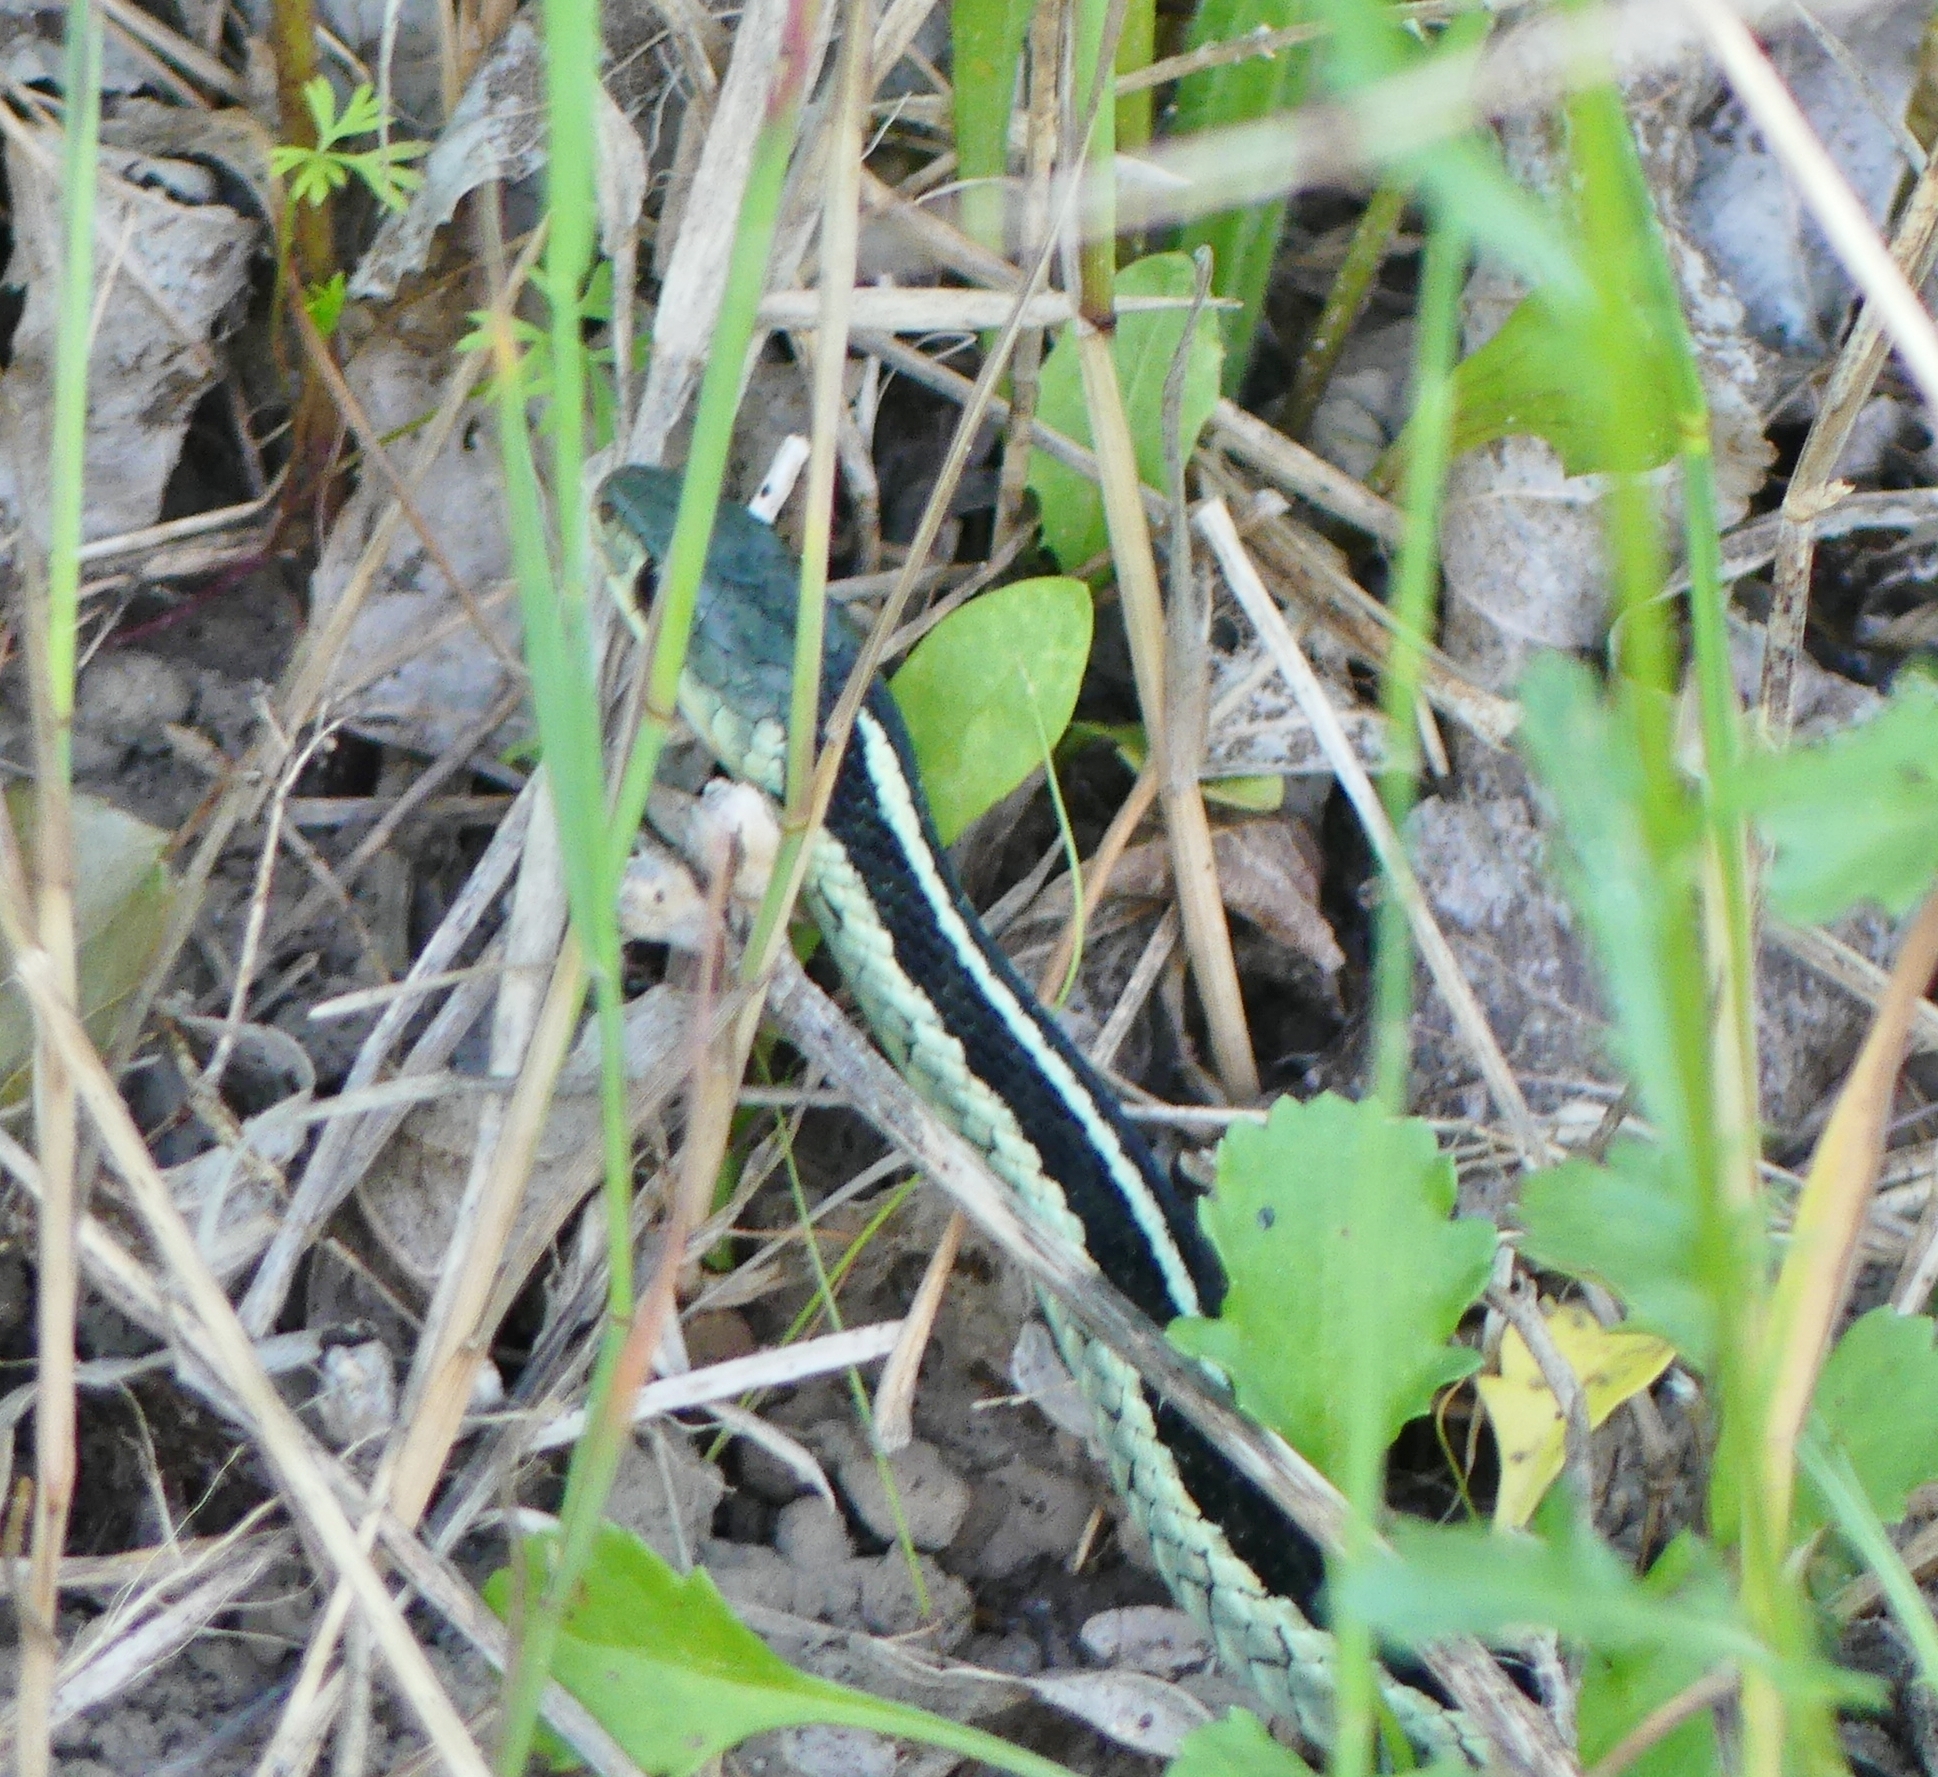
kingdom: Animalia
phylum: Chordata
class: Squamata
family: Colubridae
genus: Thamnophis
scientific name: Thamnophis sirtalis
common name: Common garter snake
